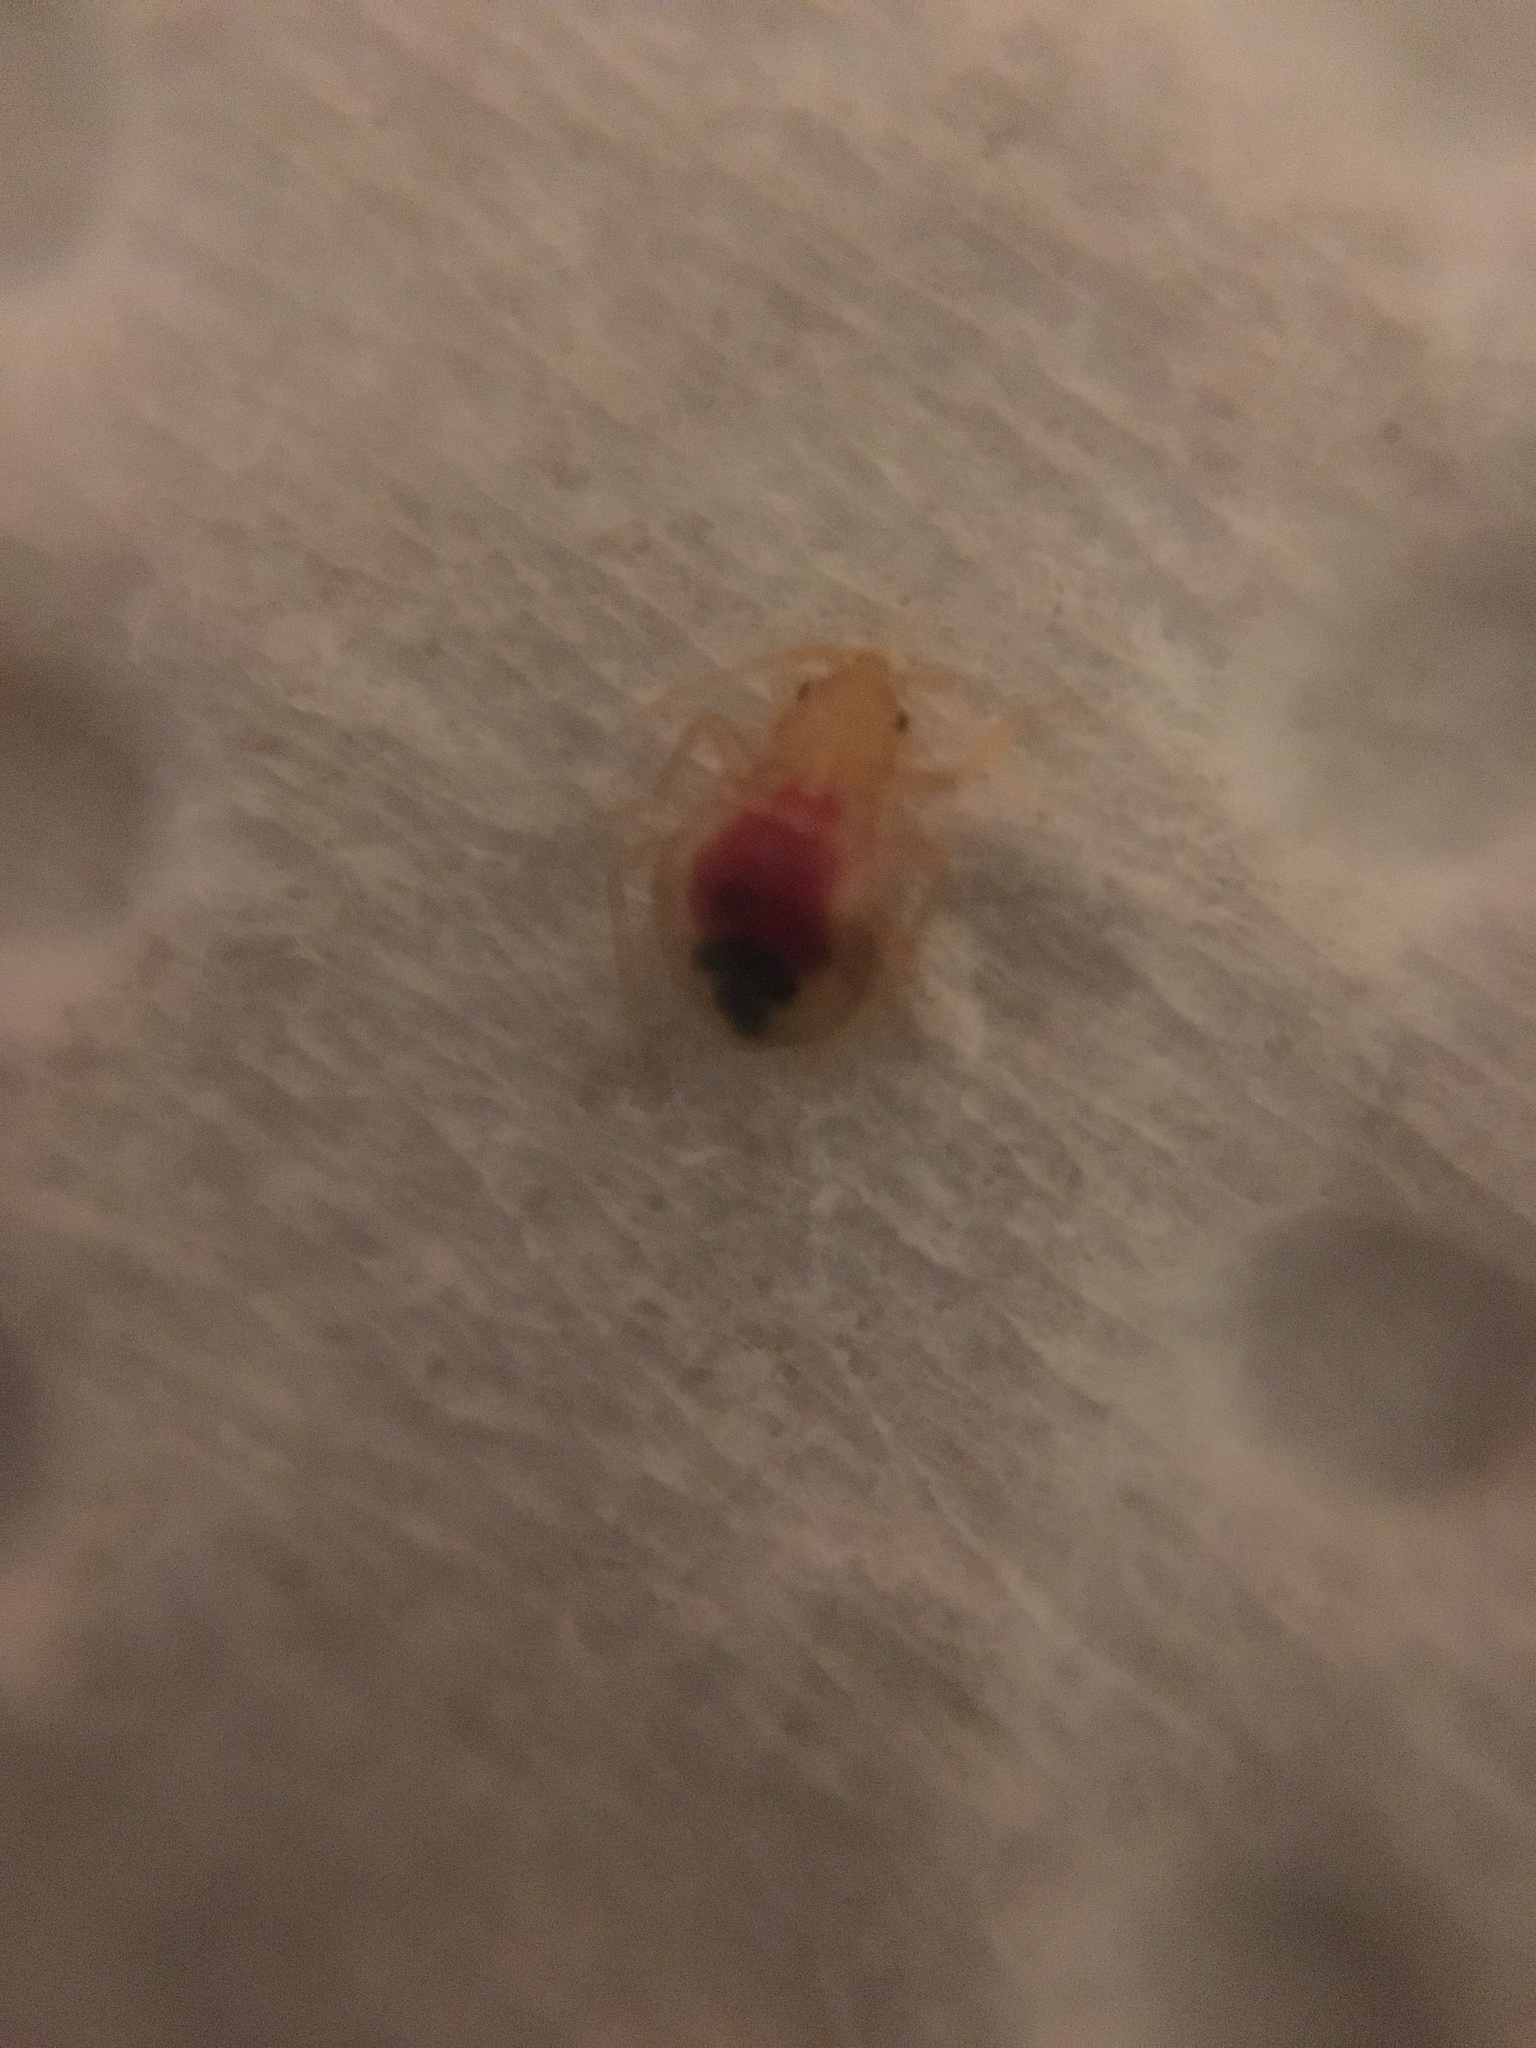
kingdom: Animalia
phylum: Arthropoda
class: Insecta
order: Hemiptera
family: Cimicidae
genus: Cimex
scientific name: Cimex lectularius
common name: Bed bug
